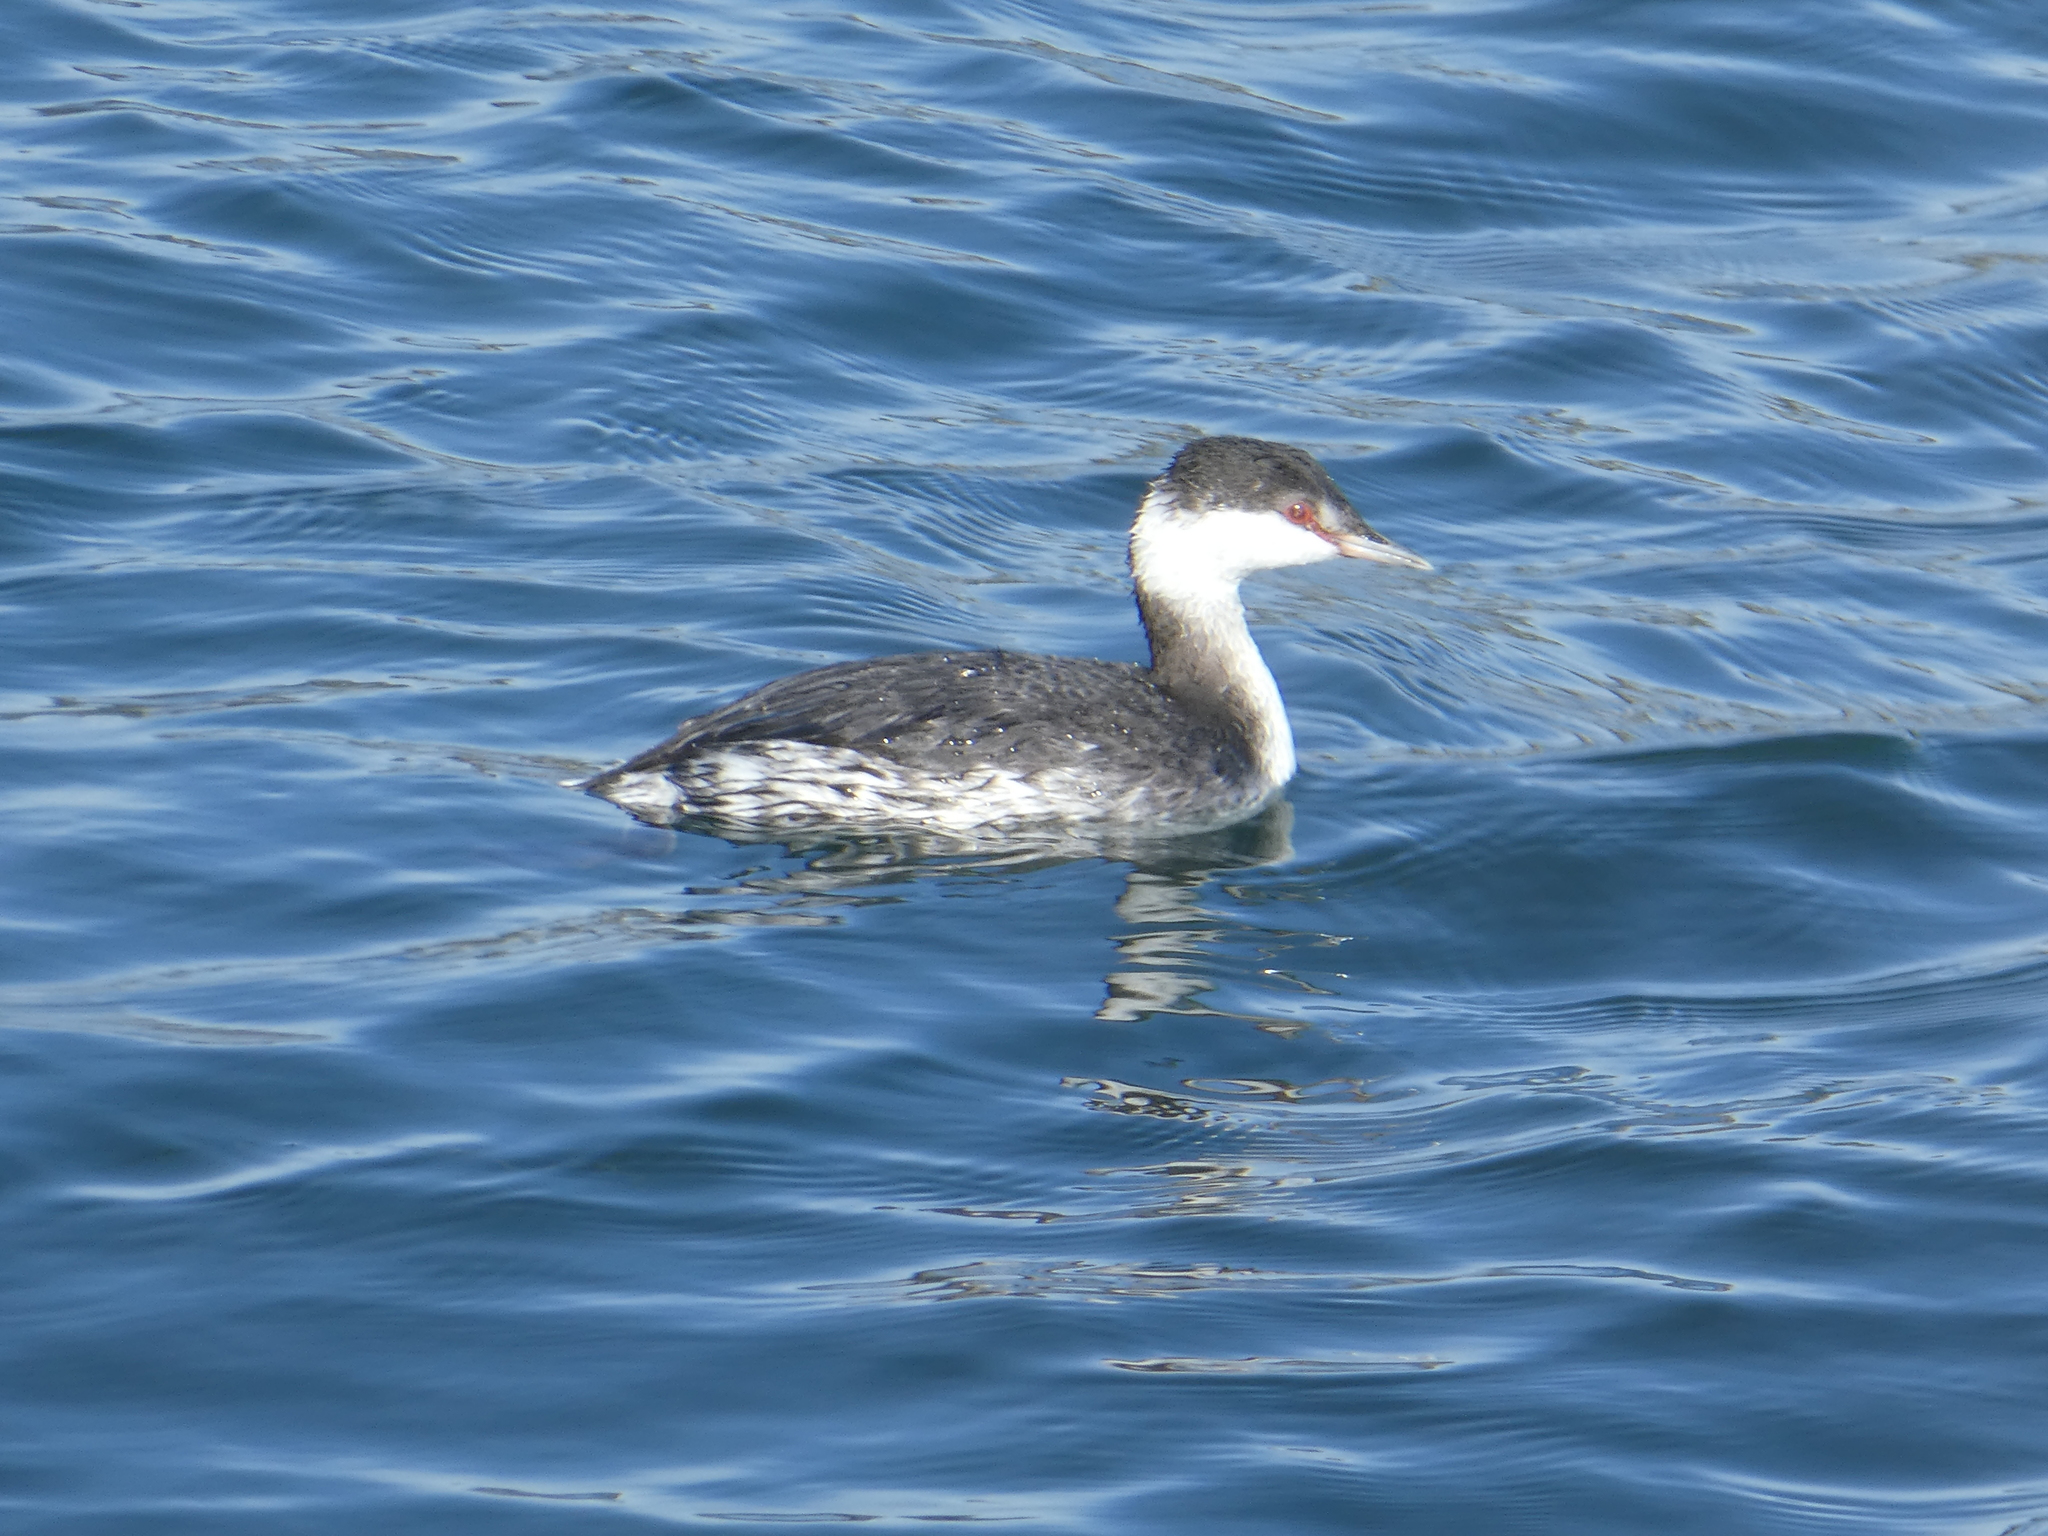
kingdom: Animalia
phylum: Chordata
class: Aves
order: Podicipediformes
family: Podicipedidae
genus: Podiceps
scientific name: Podiceps auritus
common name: Horned grebe
